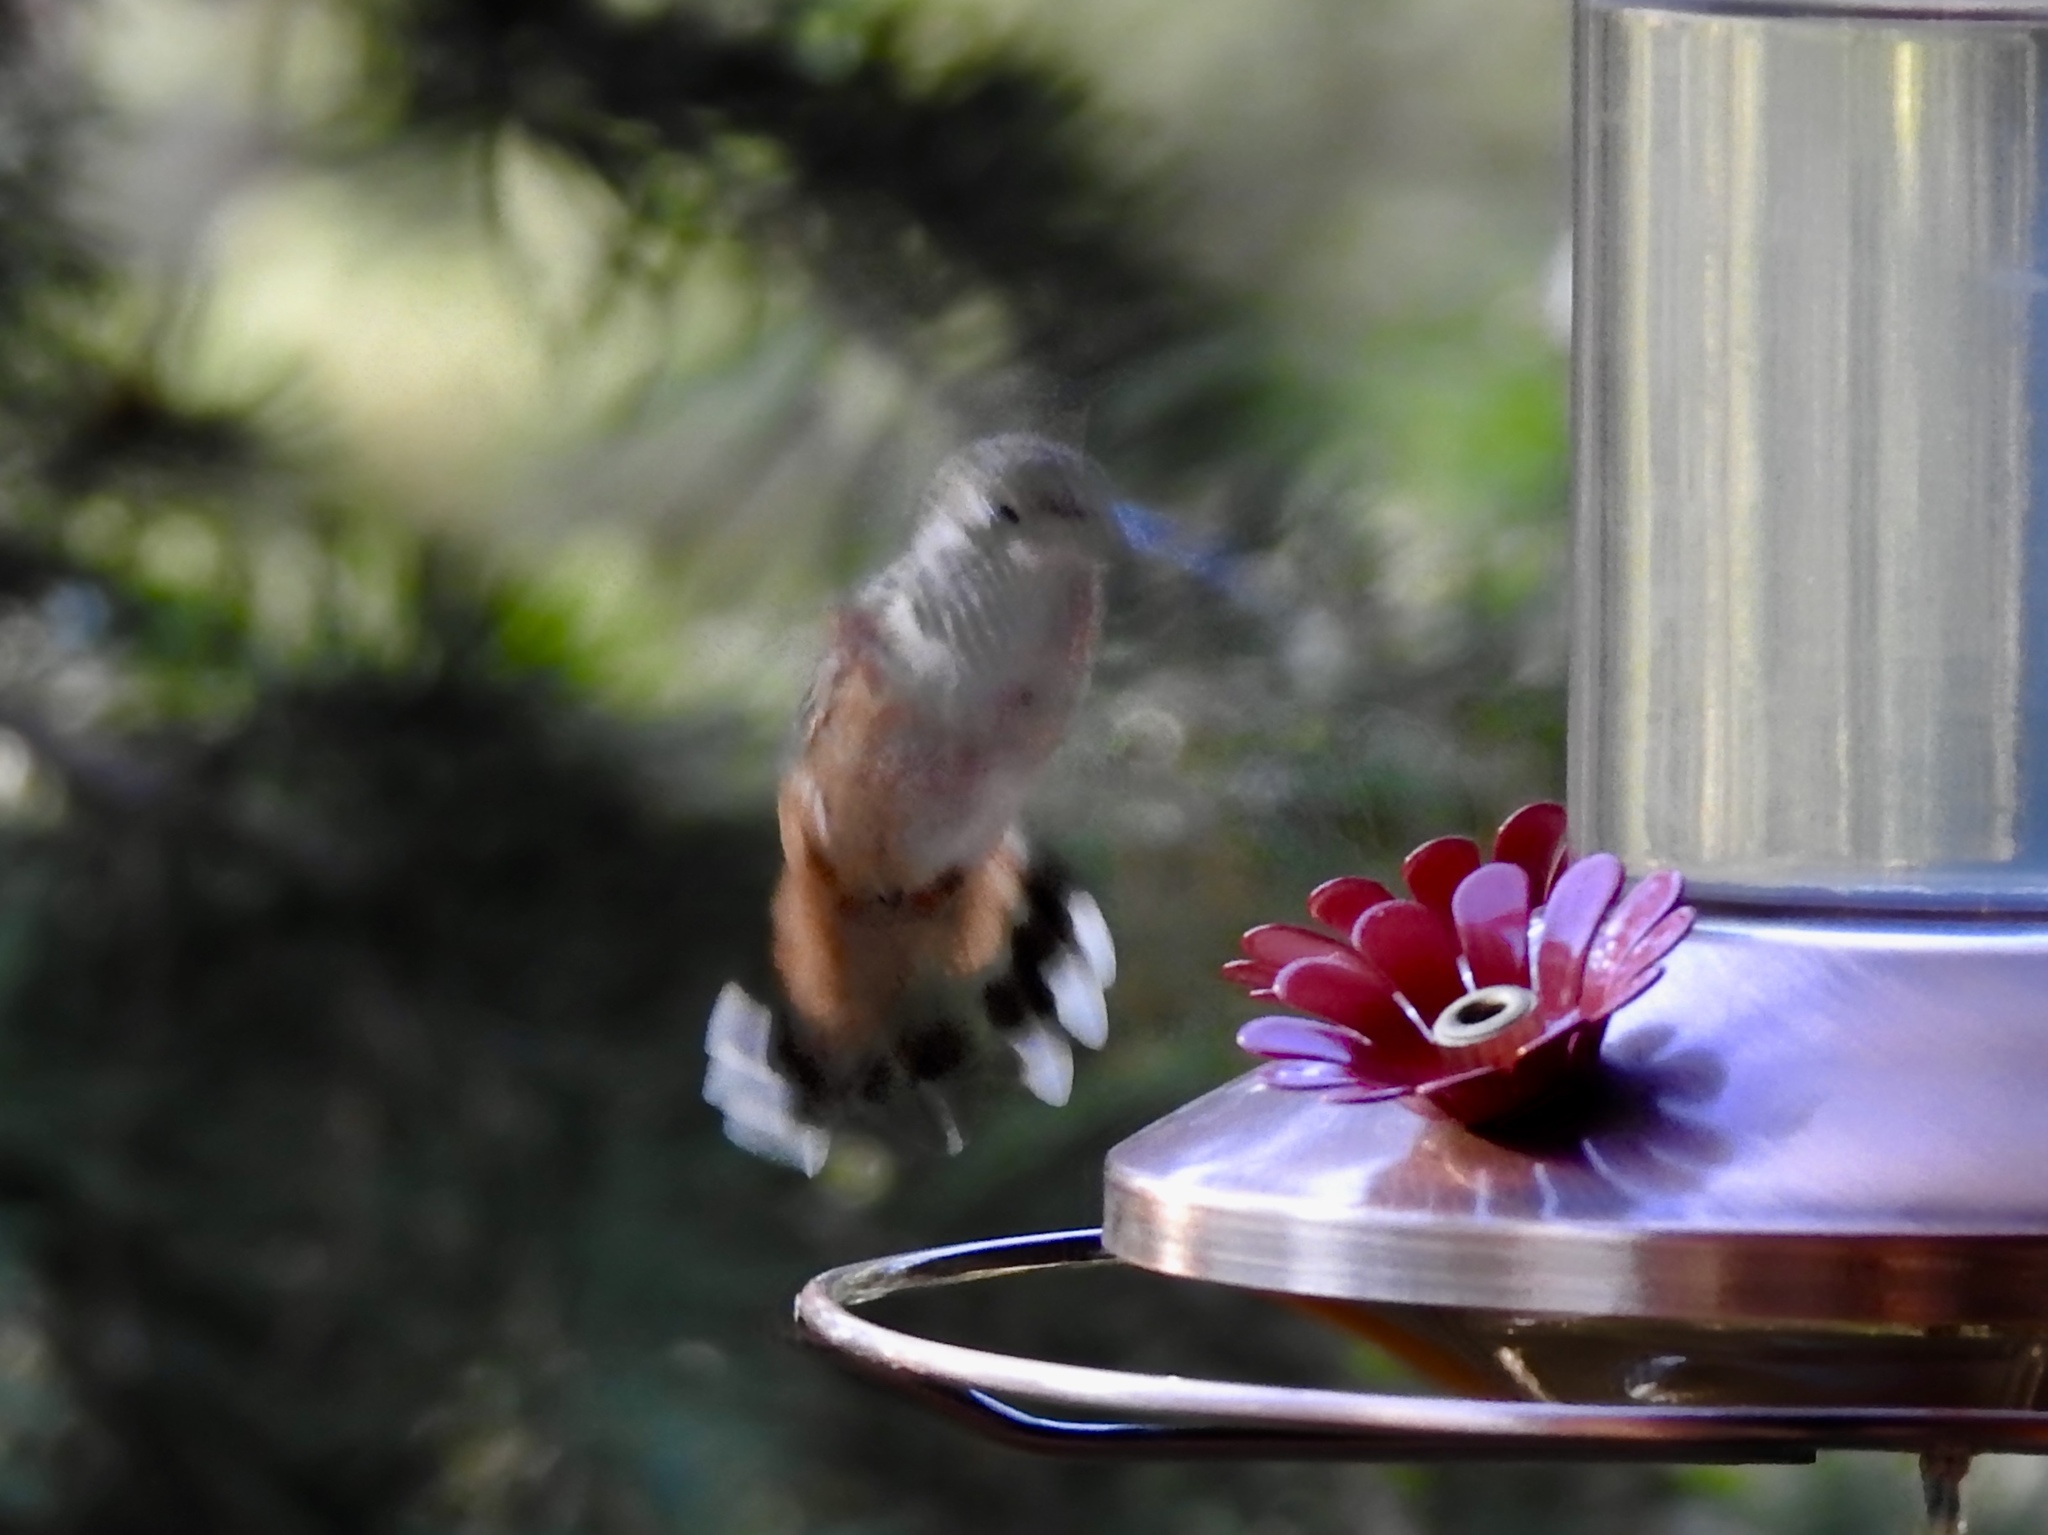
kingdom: Animalia
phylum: Chordata
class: Aves
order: Apodiformes
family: Trochilidae
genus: Selasphorus
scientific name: Selasphorus platycercus
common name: Broad-tailed hummingbird
